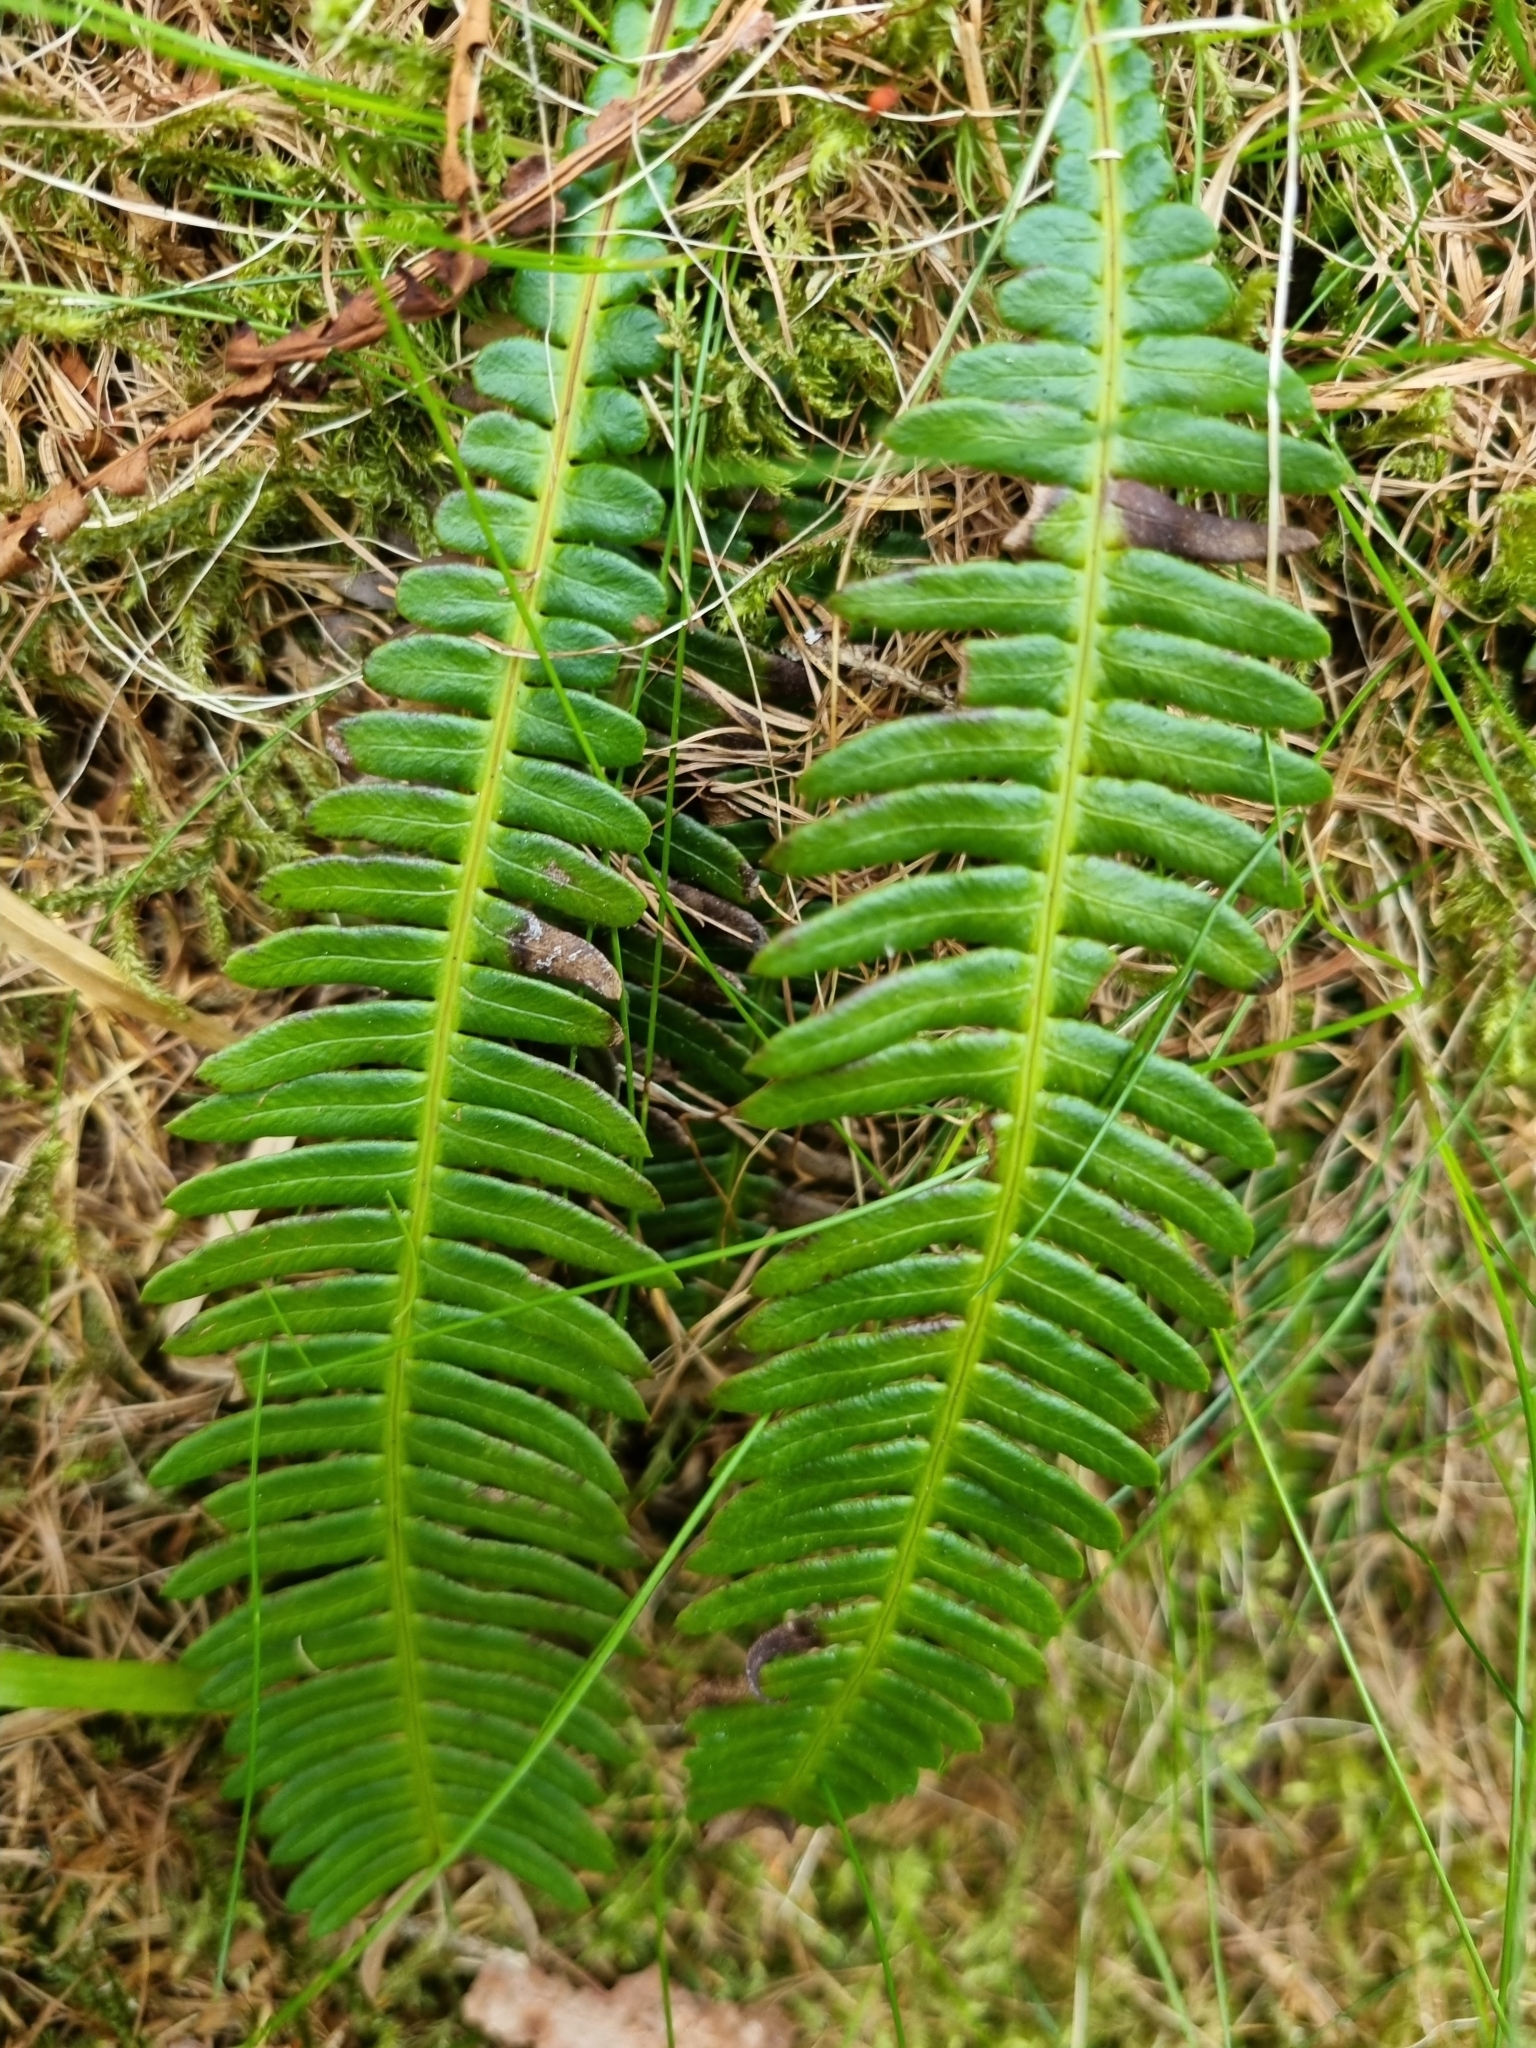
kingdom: Plantae
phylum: Tracheophyta
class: Polypodiopsida
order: Polypodiales
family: Blechnaceae
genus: Struthiopteris
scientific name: Struthiopteris spicant
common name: Deer fern
